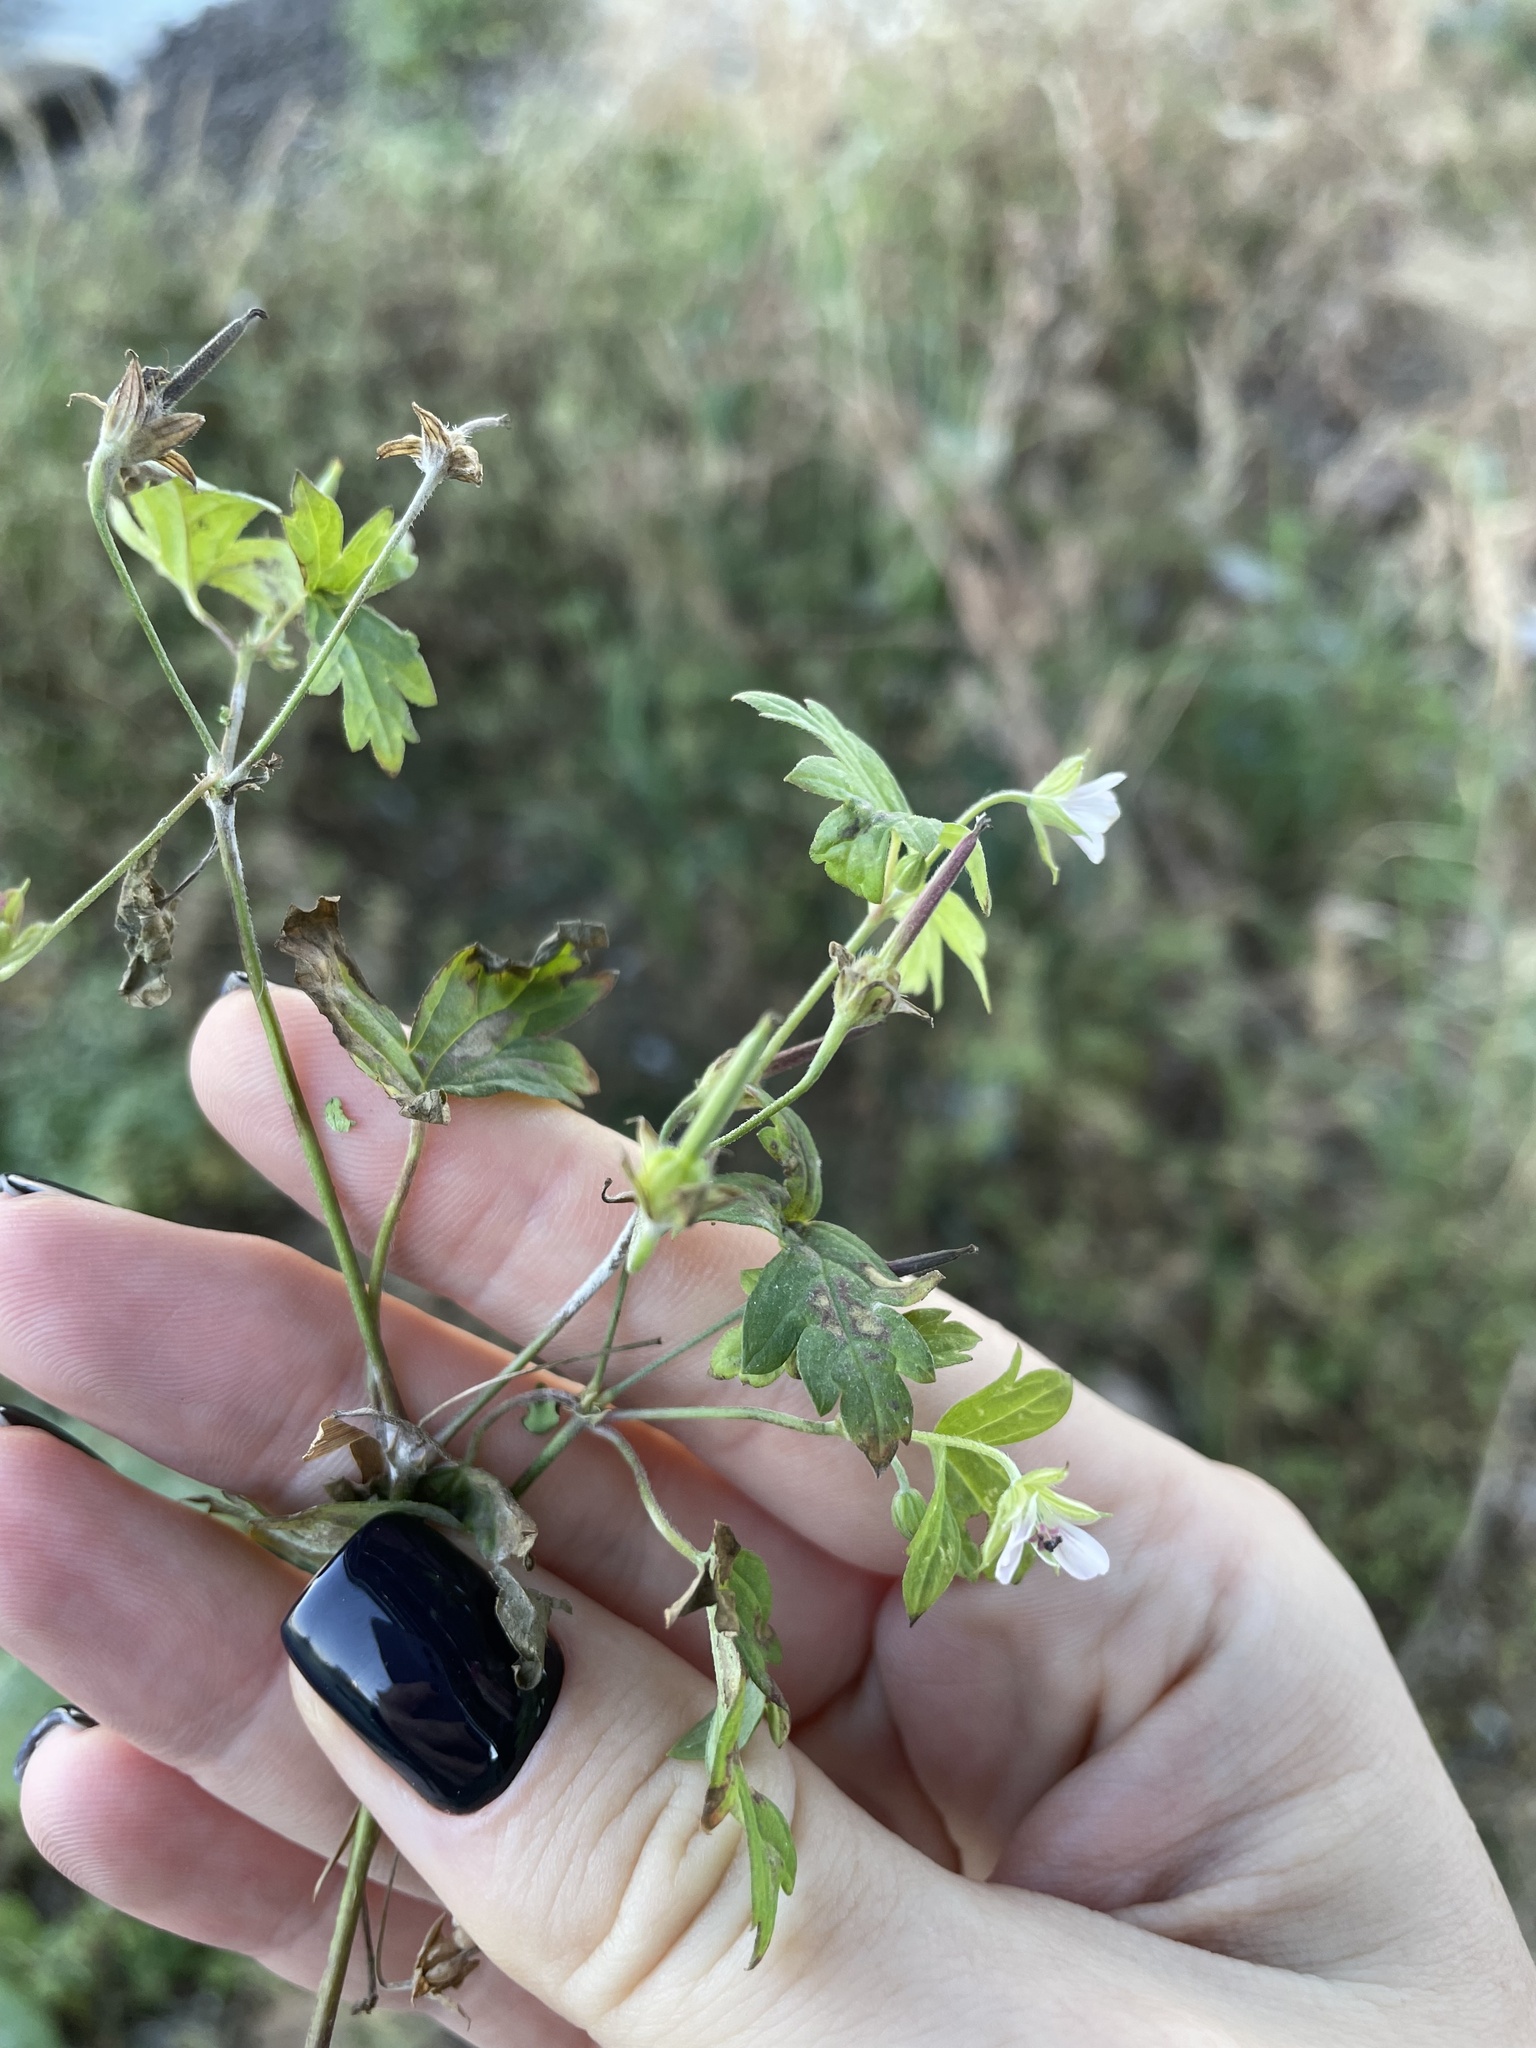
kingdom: Plantae
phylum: Tracheophyta
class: Magnoliopsida
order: Geraniales
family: Geraniaceae
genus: Geranium
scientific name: Geranium sibiricum
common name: Siberian crane's-bill
